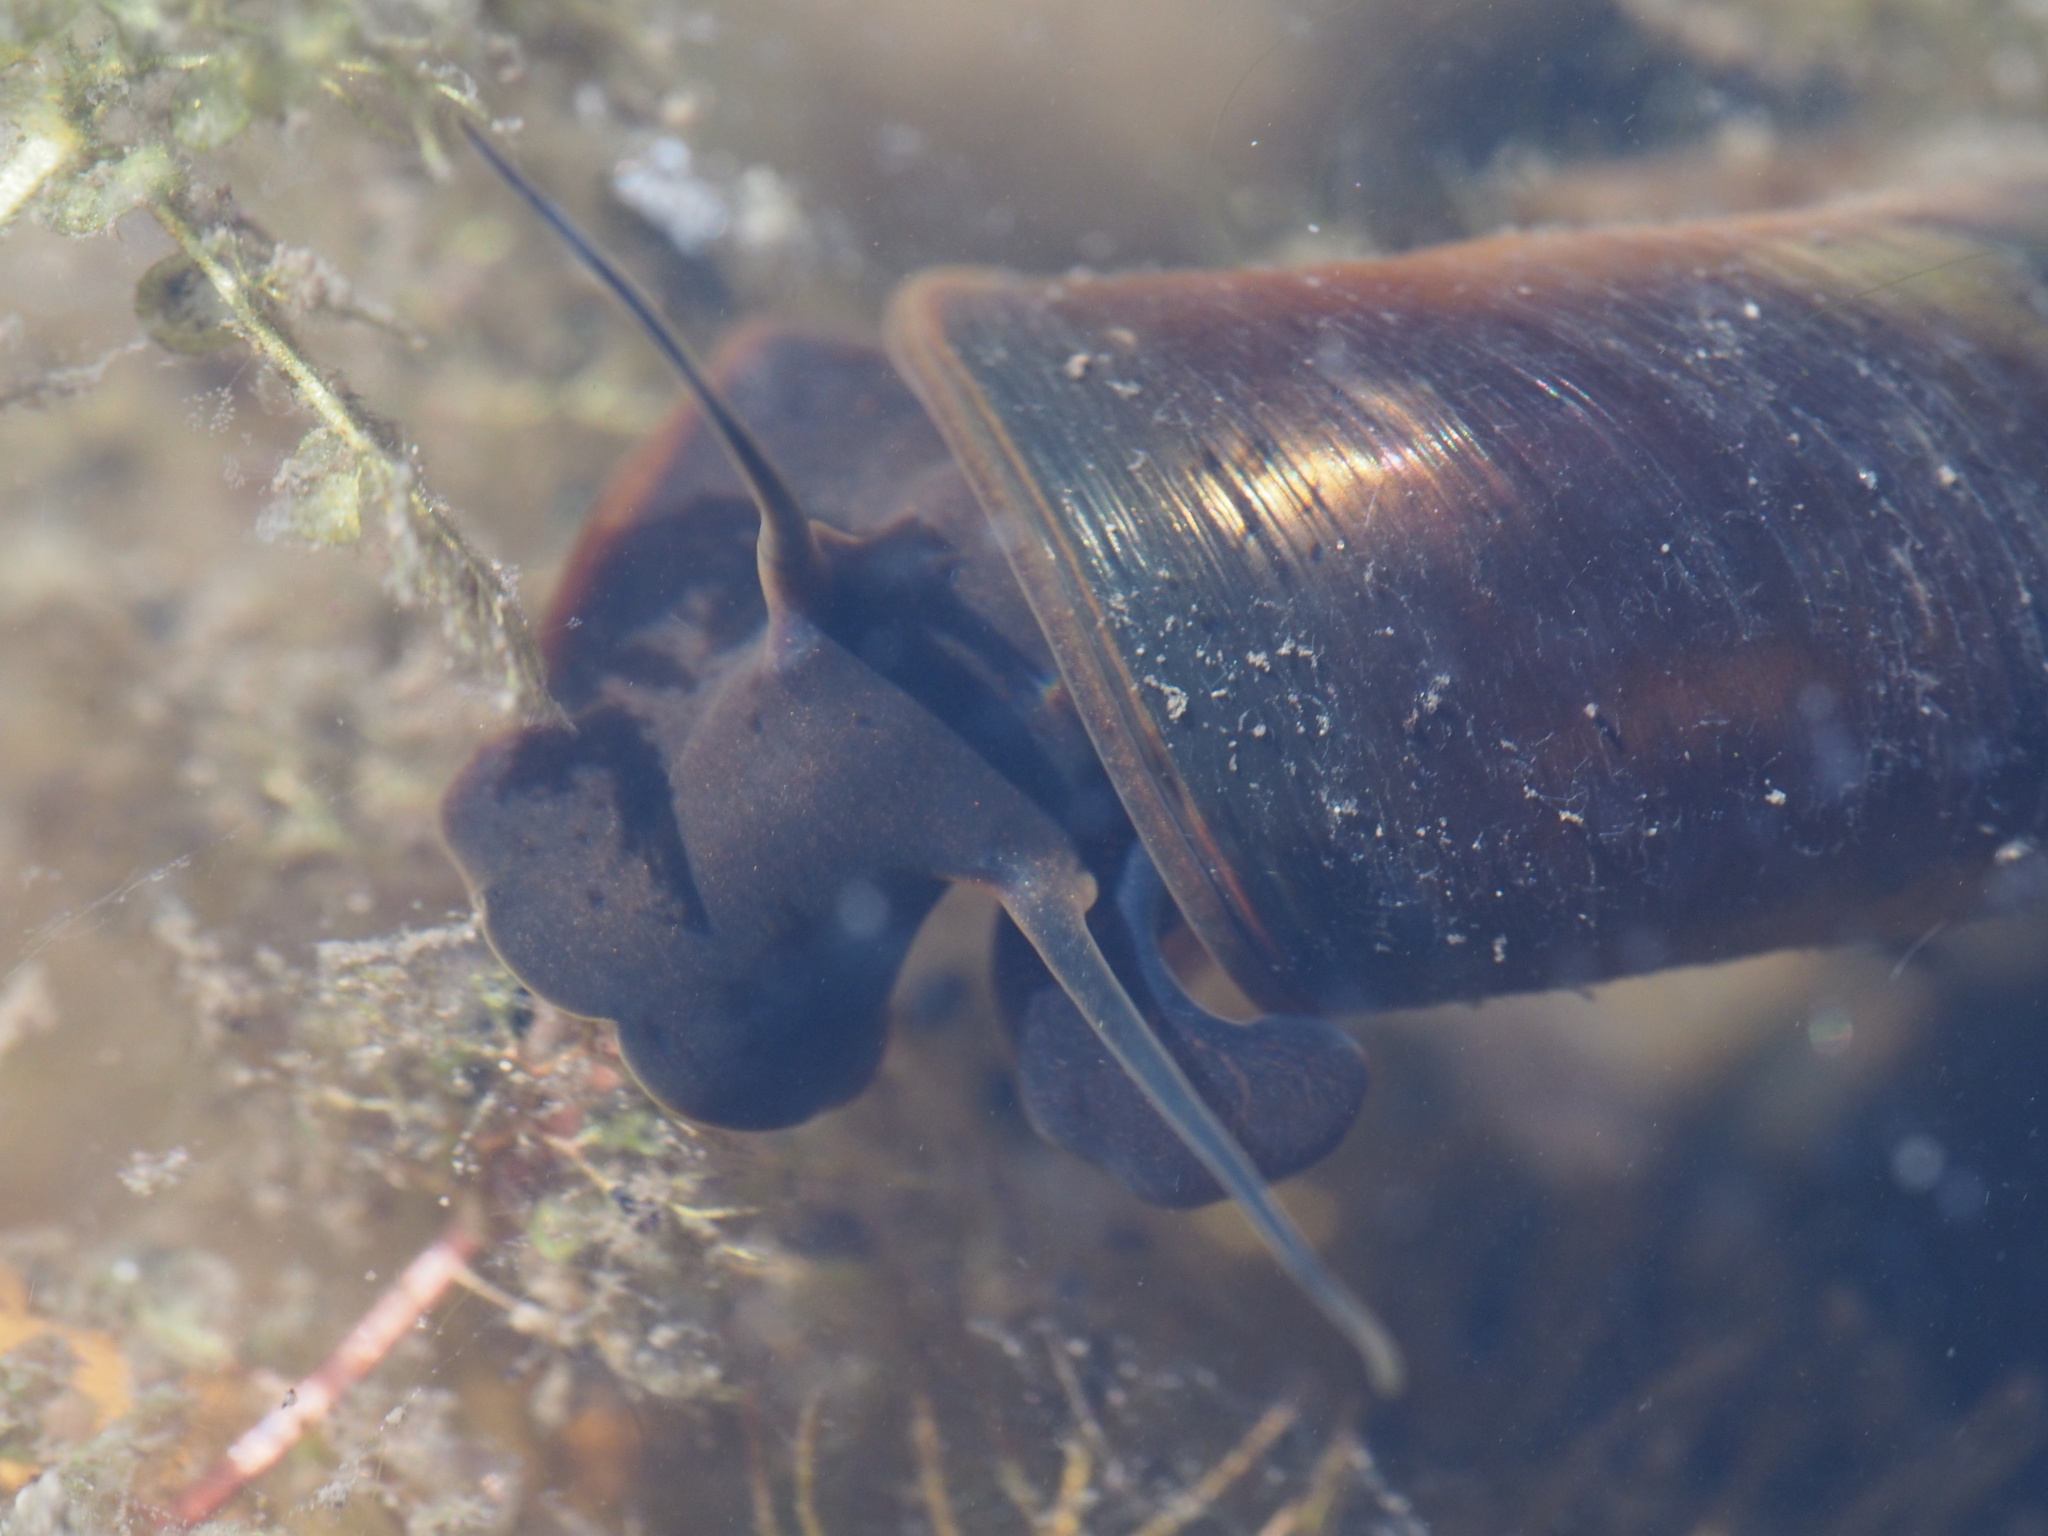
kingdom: Animalia
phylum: Mollusca
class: Gastropoda
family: Planorbidae
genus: Planorbarius
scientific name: Planorbarius corneus
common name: Great ramshorn
